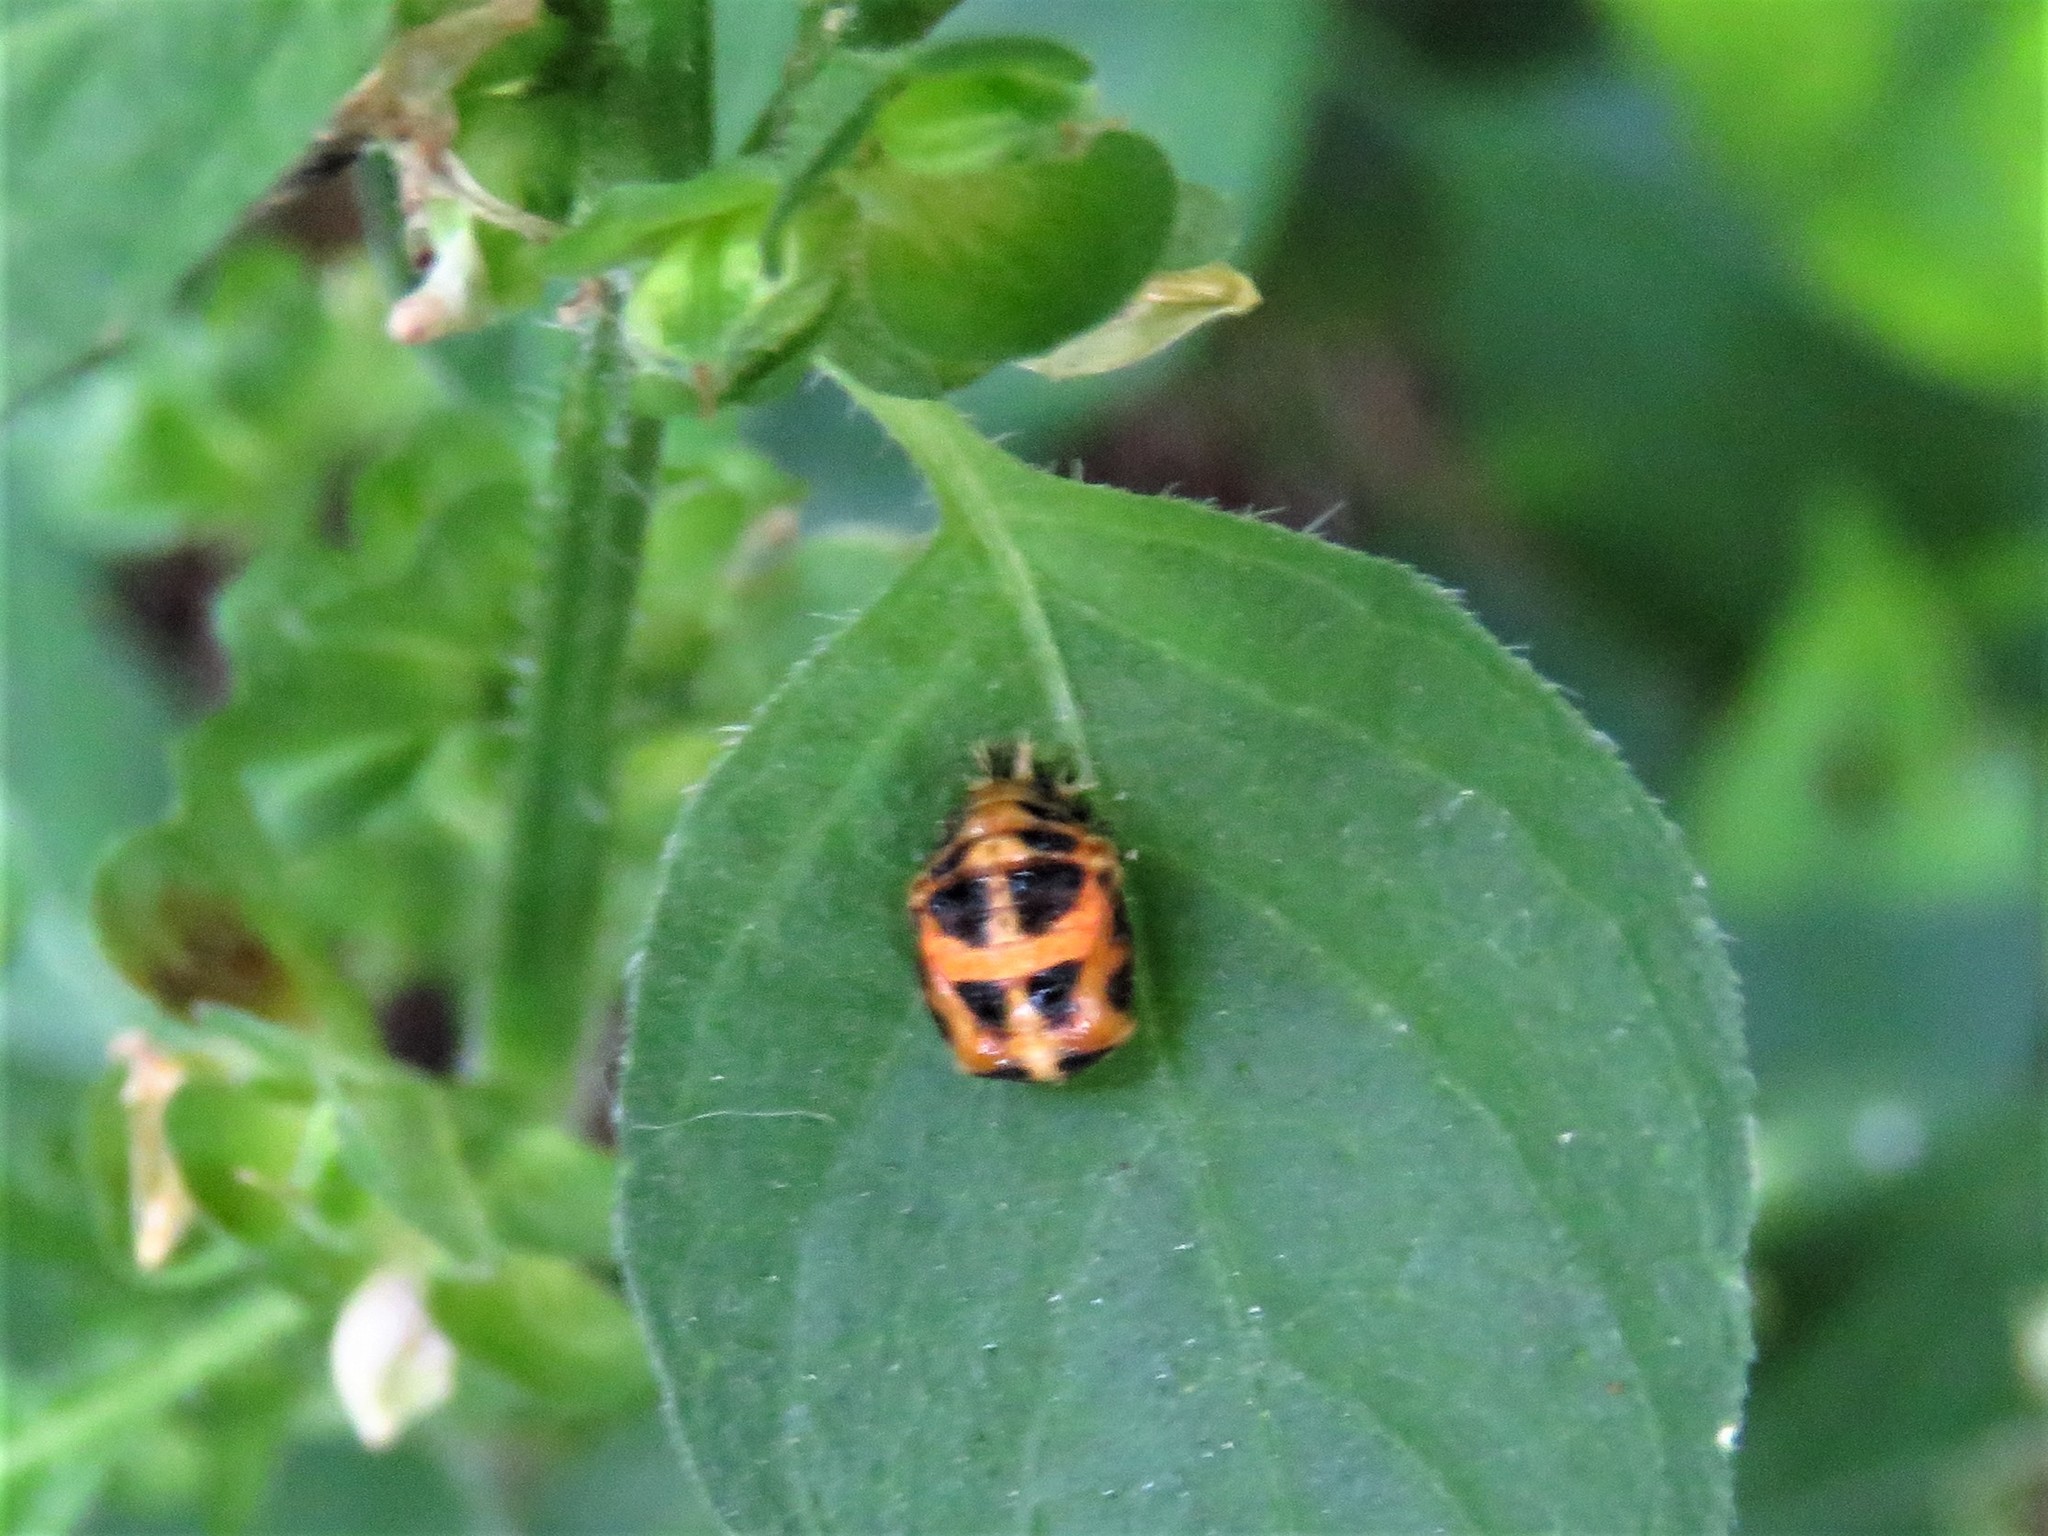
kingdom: Animalia
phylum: Arthropoda
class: Insecta
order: Coleoptera
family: Coccinellidae
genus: Harmonia
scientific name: Harmonia axyridis
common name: Harlequin ladybird
